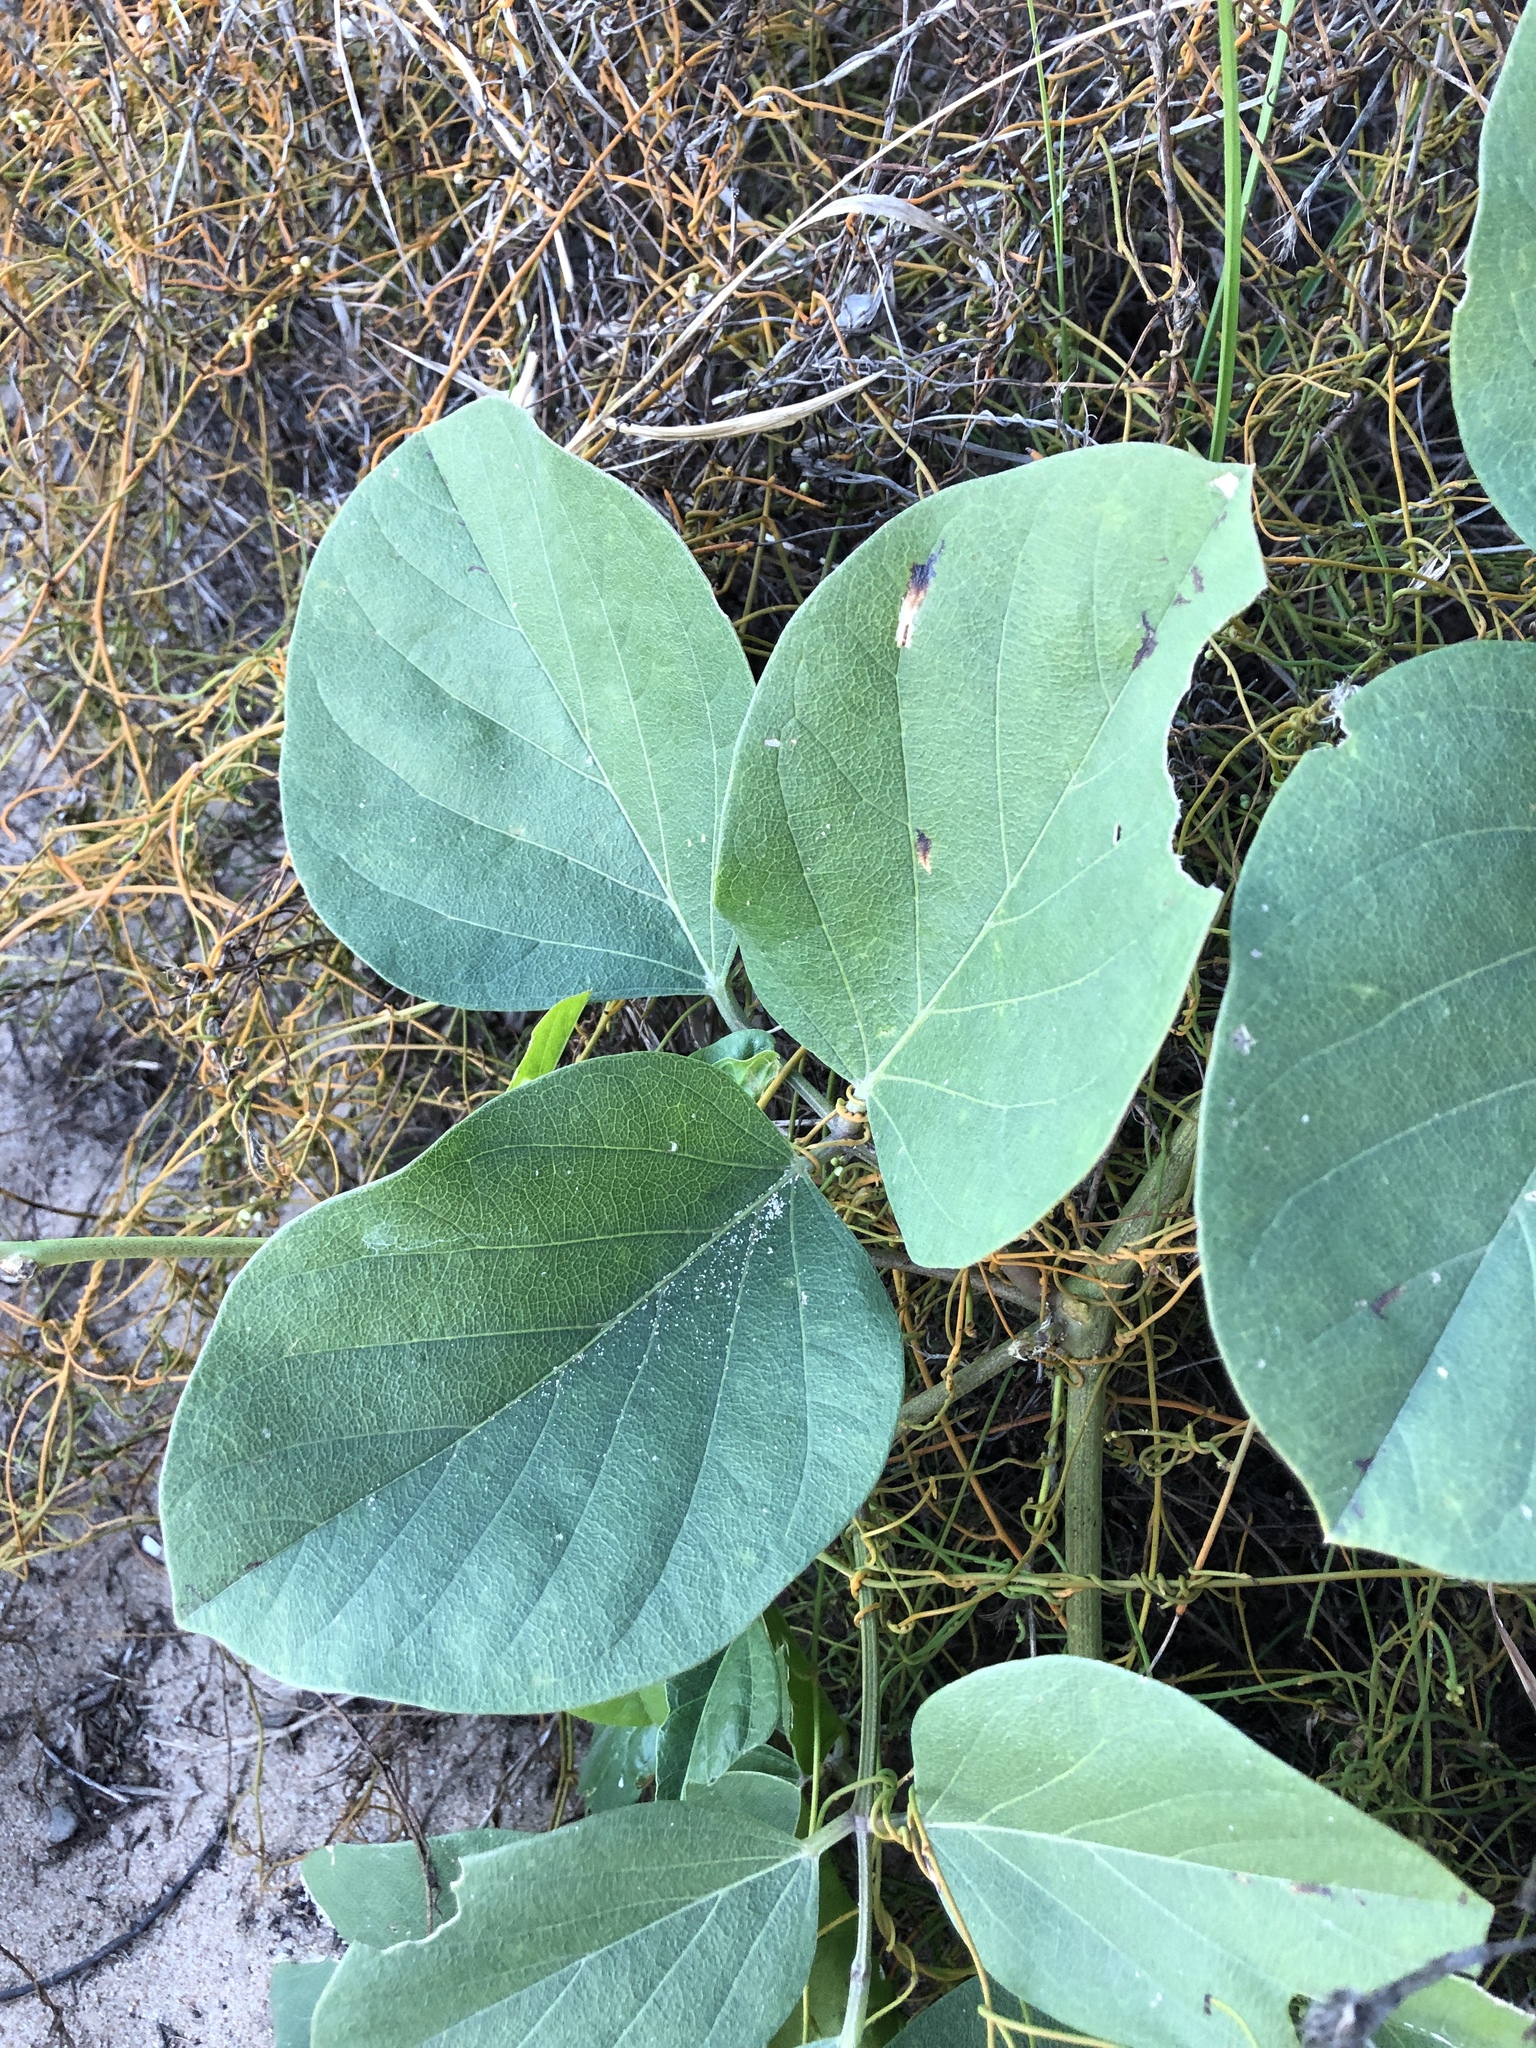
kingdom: Plantae
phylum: Tracheophyta
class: Magnoliopsida
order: Fabales
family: Fabaceae
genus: Canavalia
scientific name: Canavalia rosea
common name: Beach-bean
